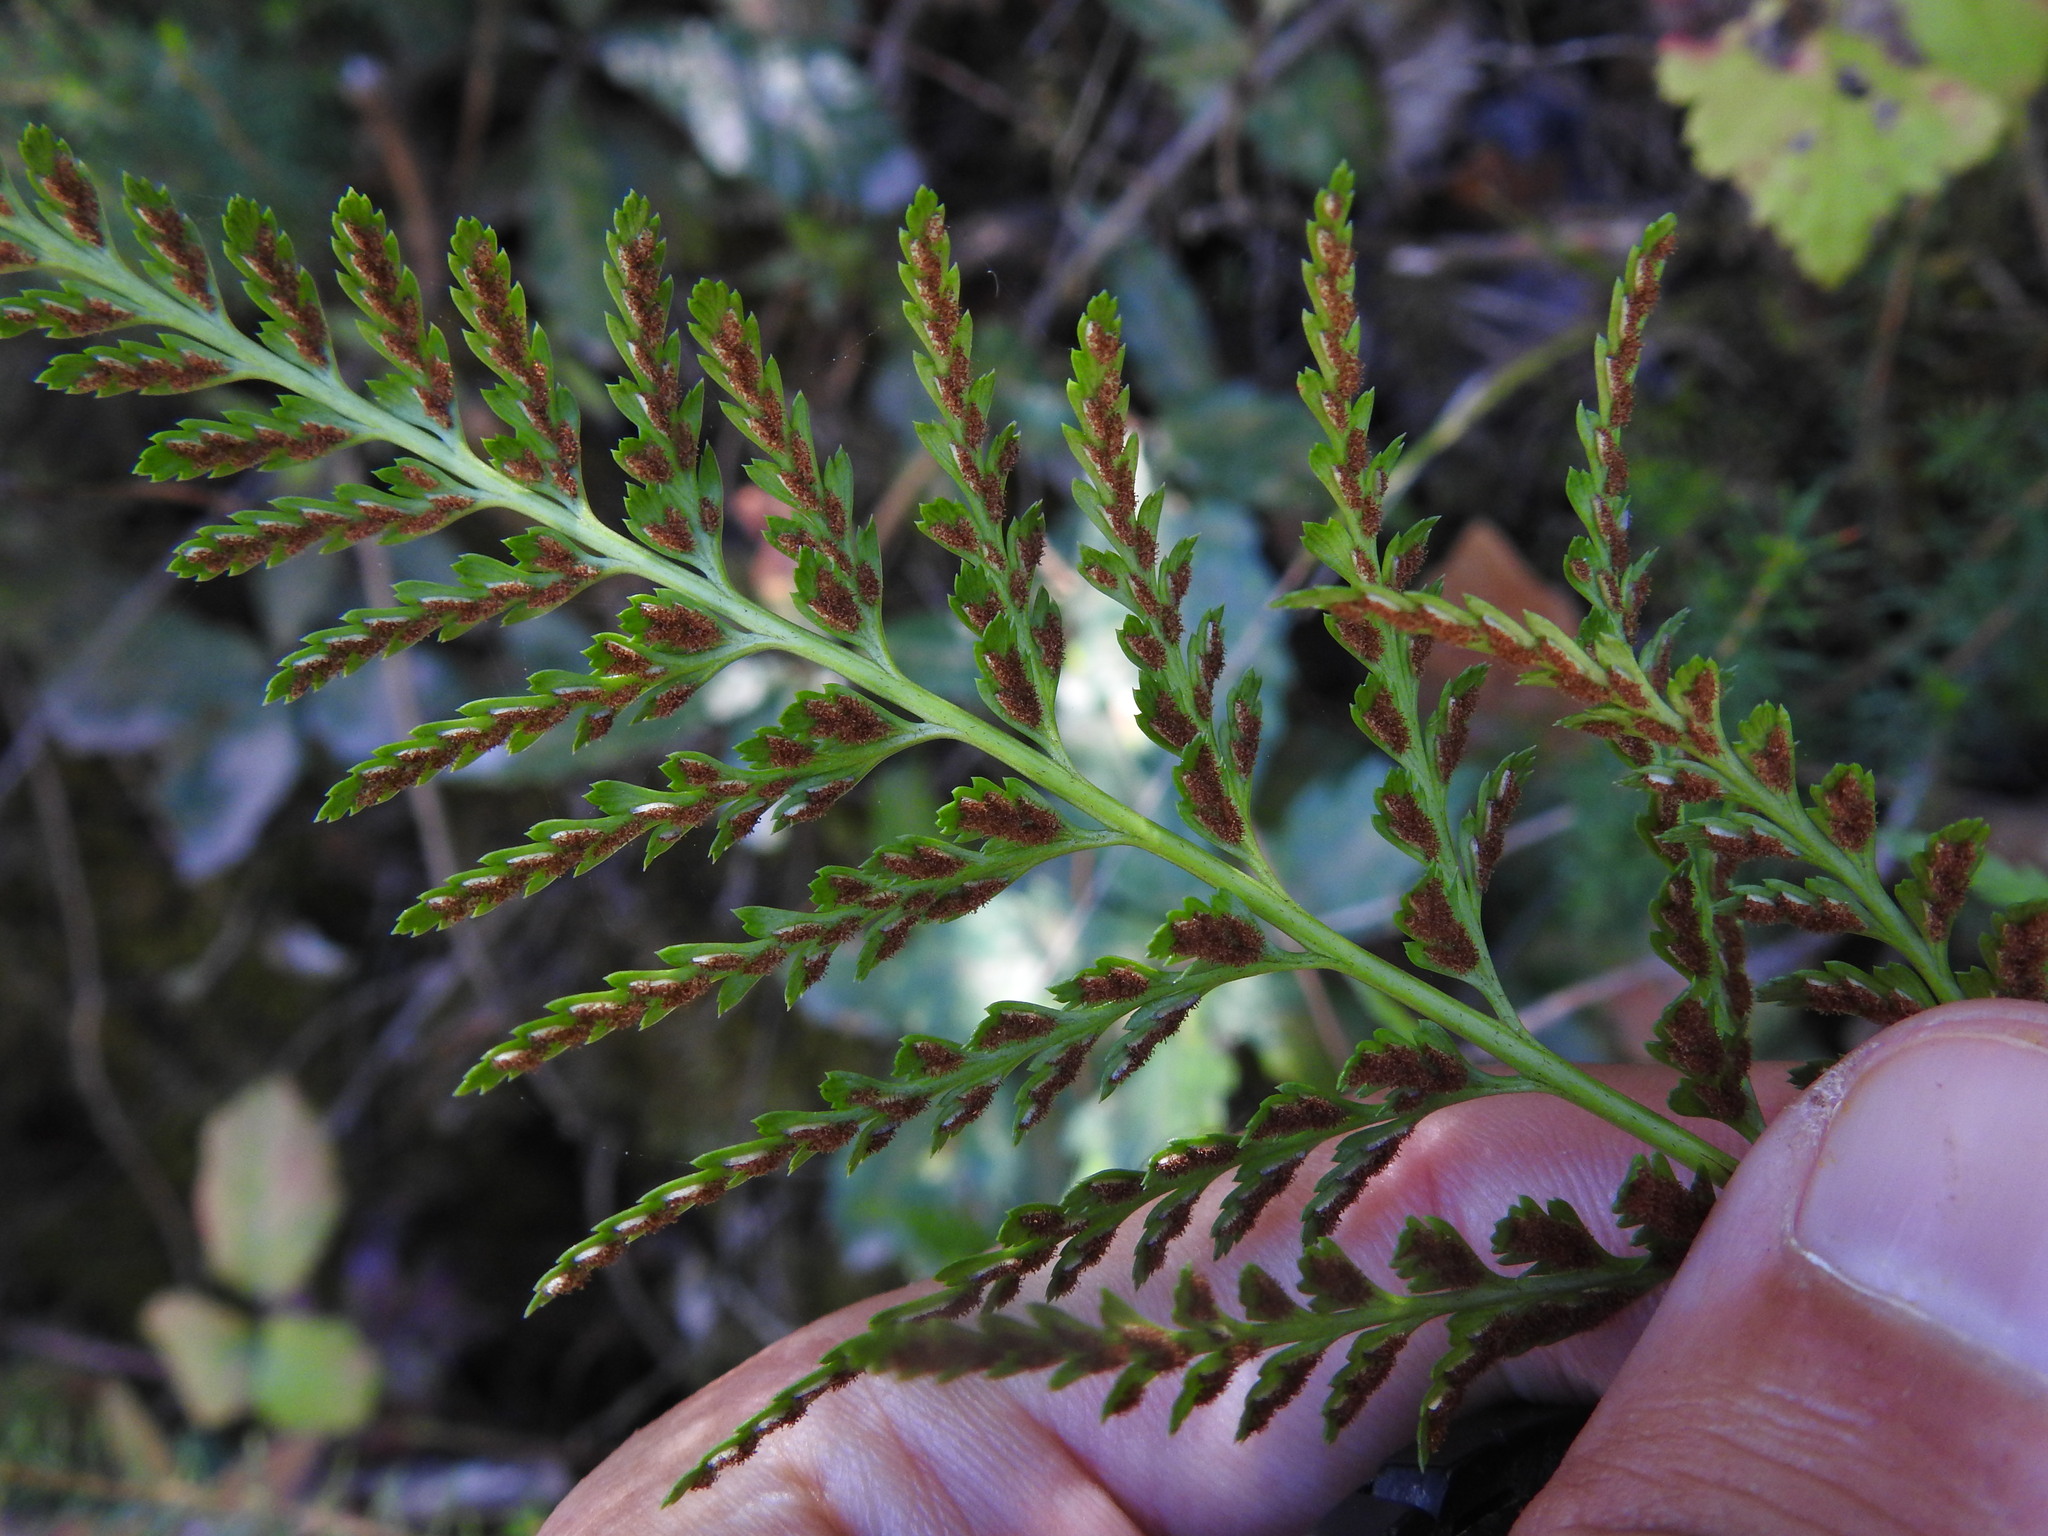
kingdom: Plantae
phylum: Tracheophyta
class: Polypodiopsida
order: Polypodiales
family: Aspleniaceae
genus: Asplenium
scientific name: Asplenium onopteris
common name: Irish spleenwort
